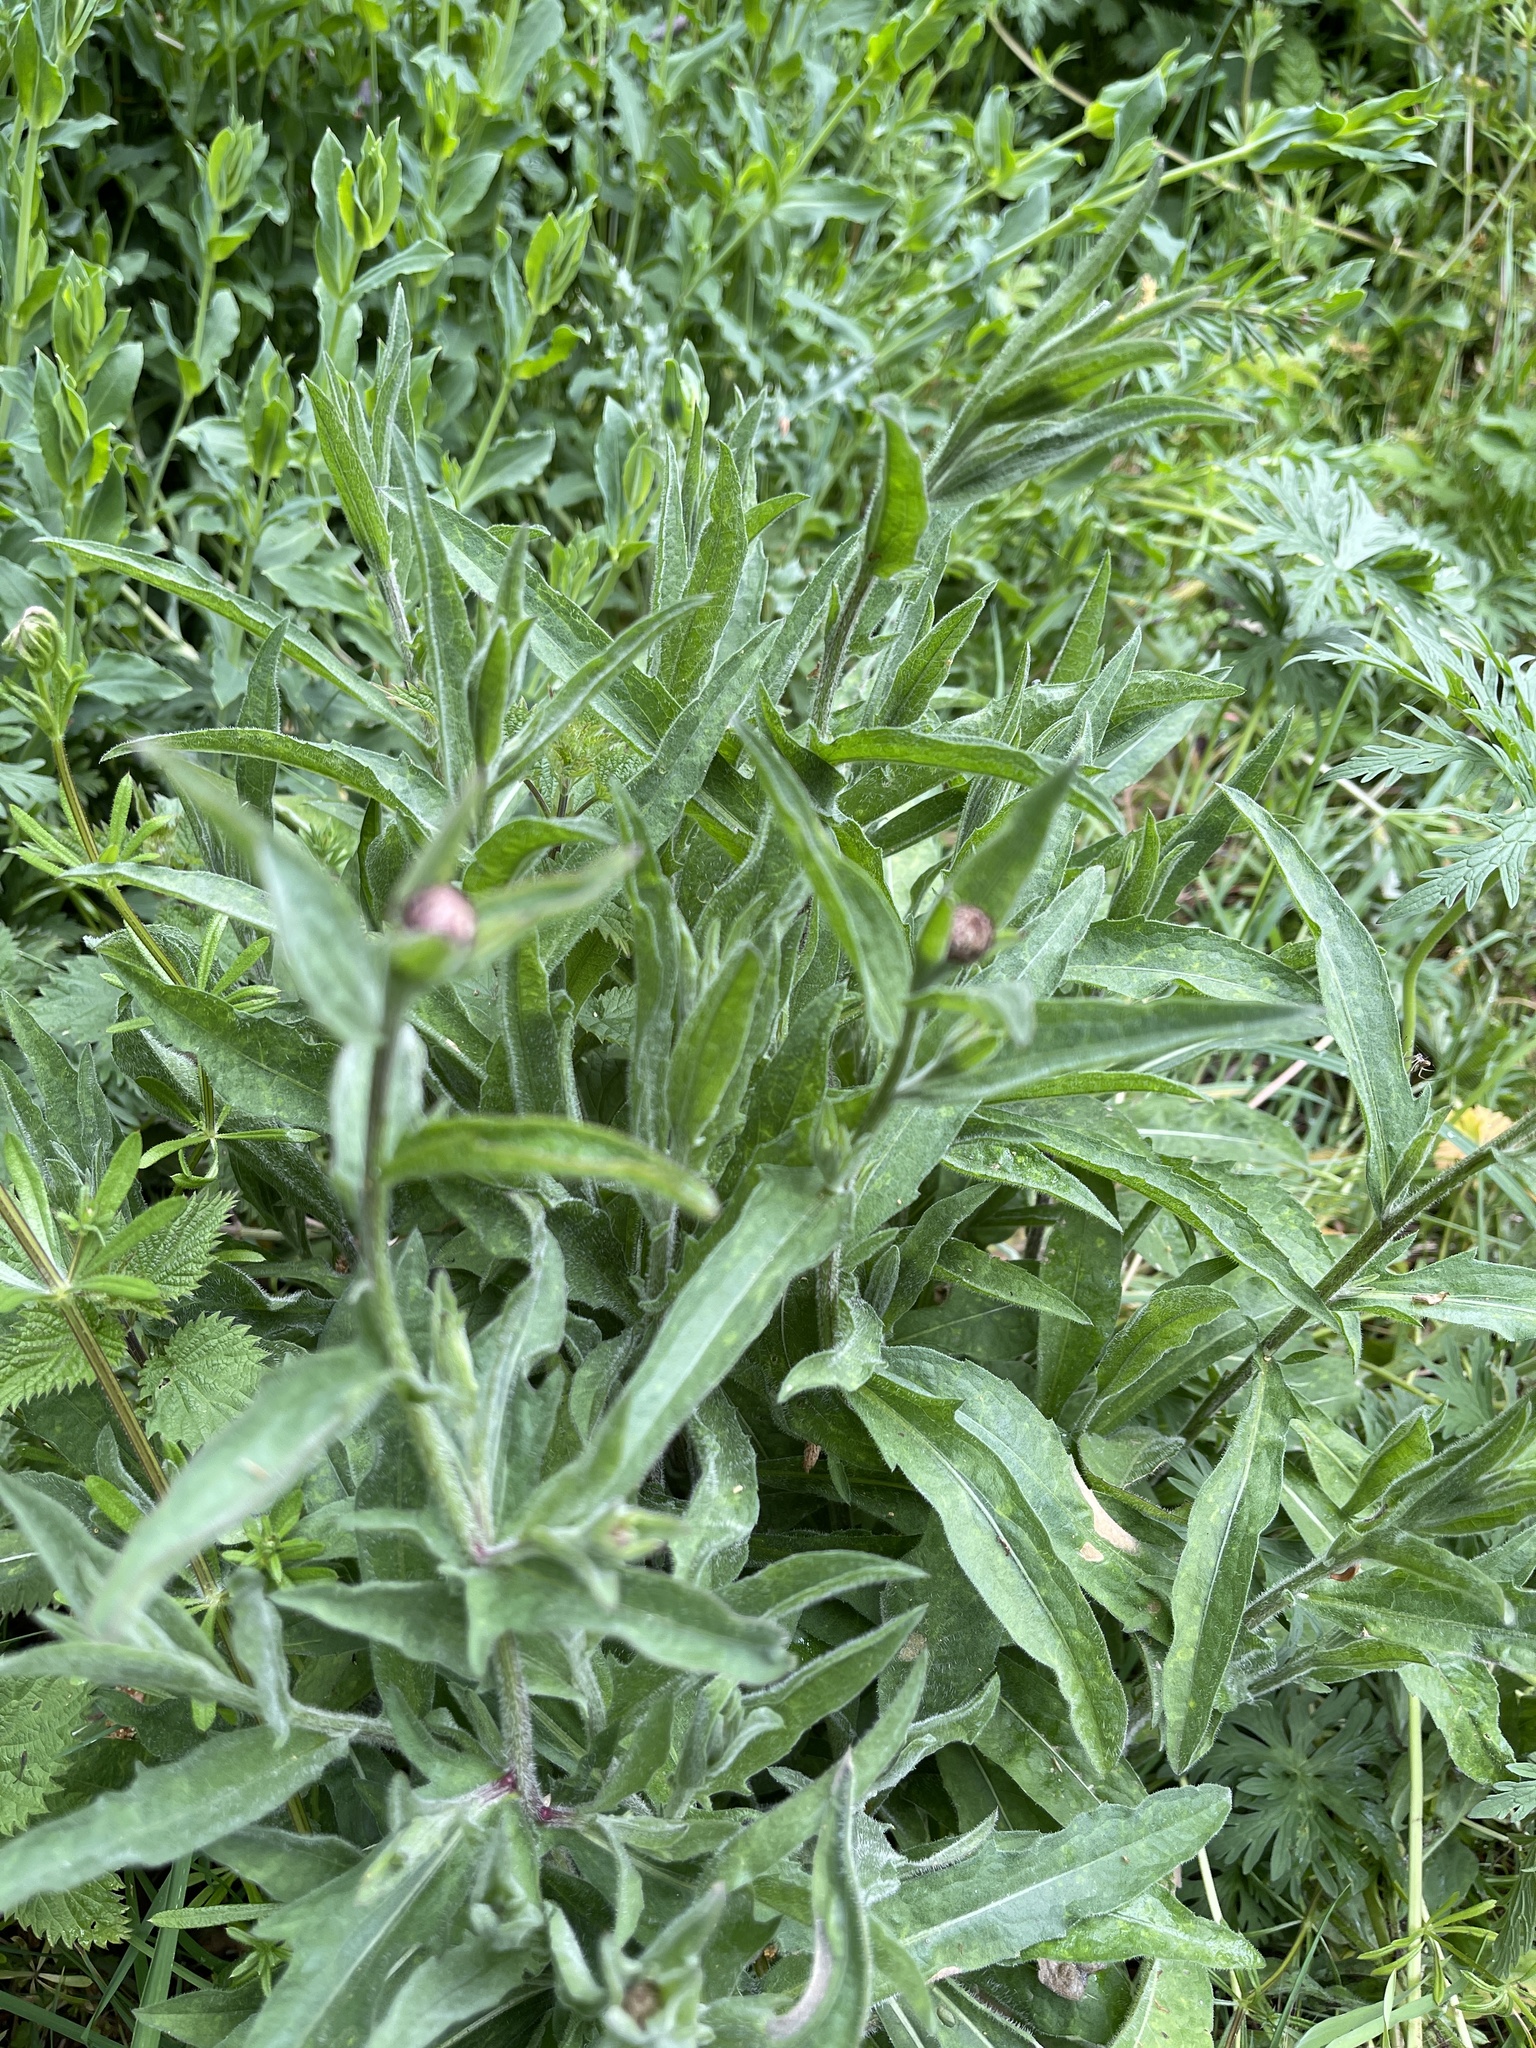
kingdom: Plantae
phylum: Tracheophyta
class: Magnoliopsida
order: Asterales
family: Asteraceae
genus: Centaurea
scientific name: Centaurea nigra
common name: Lesser knapweed
